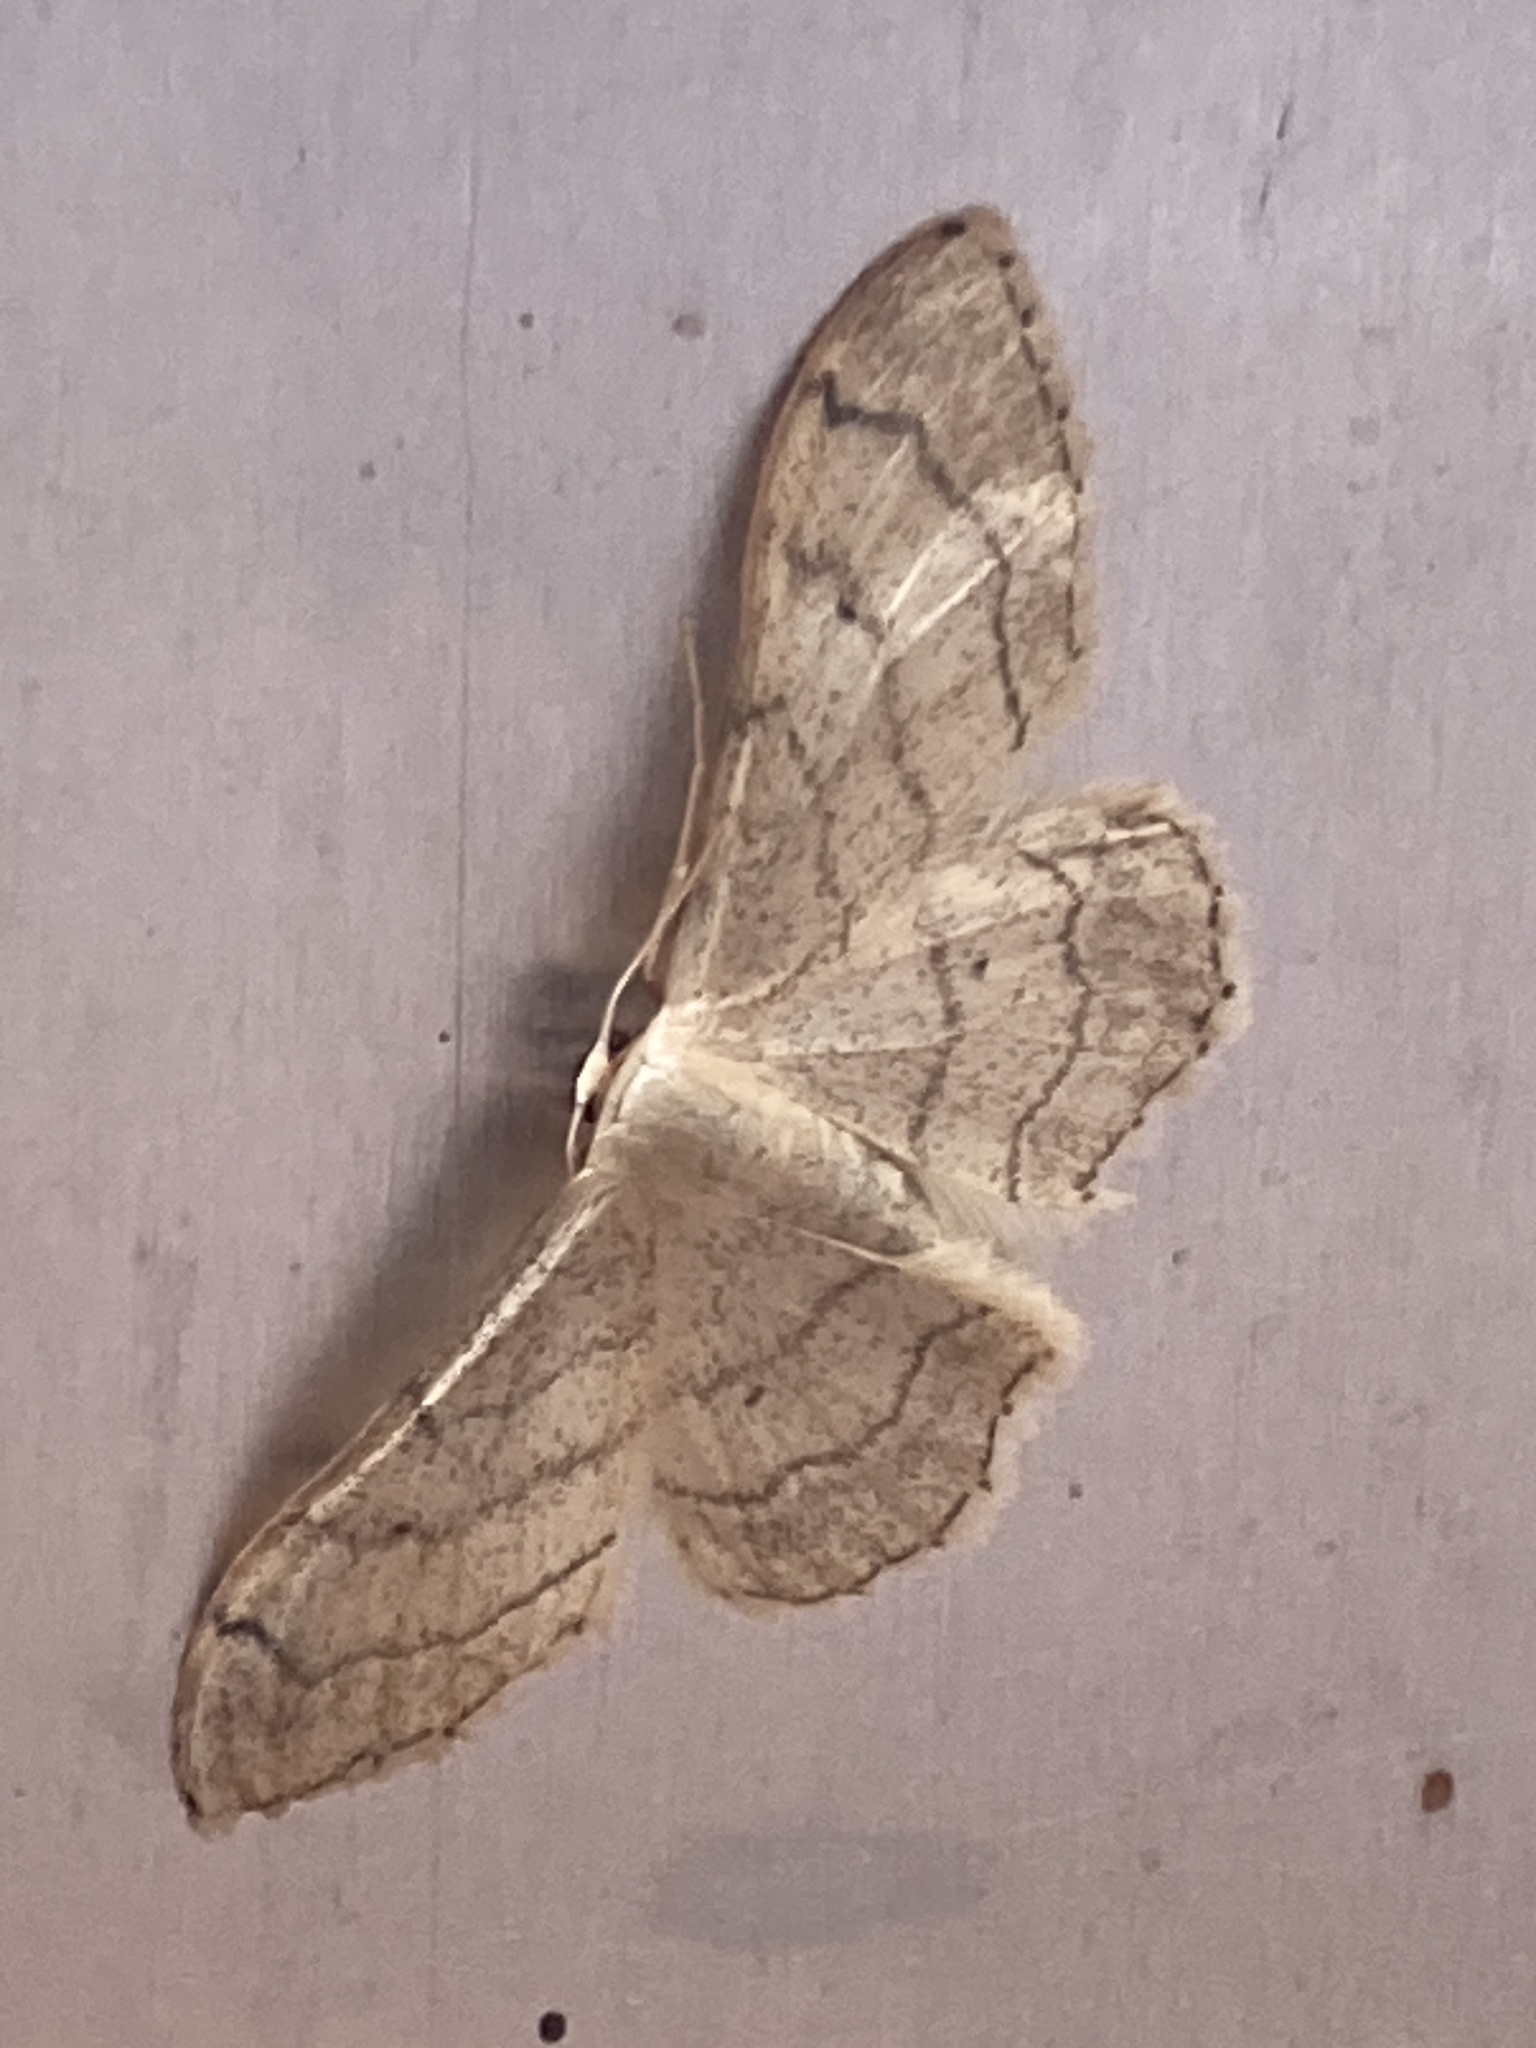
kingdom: Animalia
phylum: Arthropoda
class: Insecta
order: Lepidoptera
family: Geometridae
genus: Idaea
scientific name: Idaea aversata
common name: Riband wave
